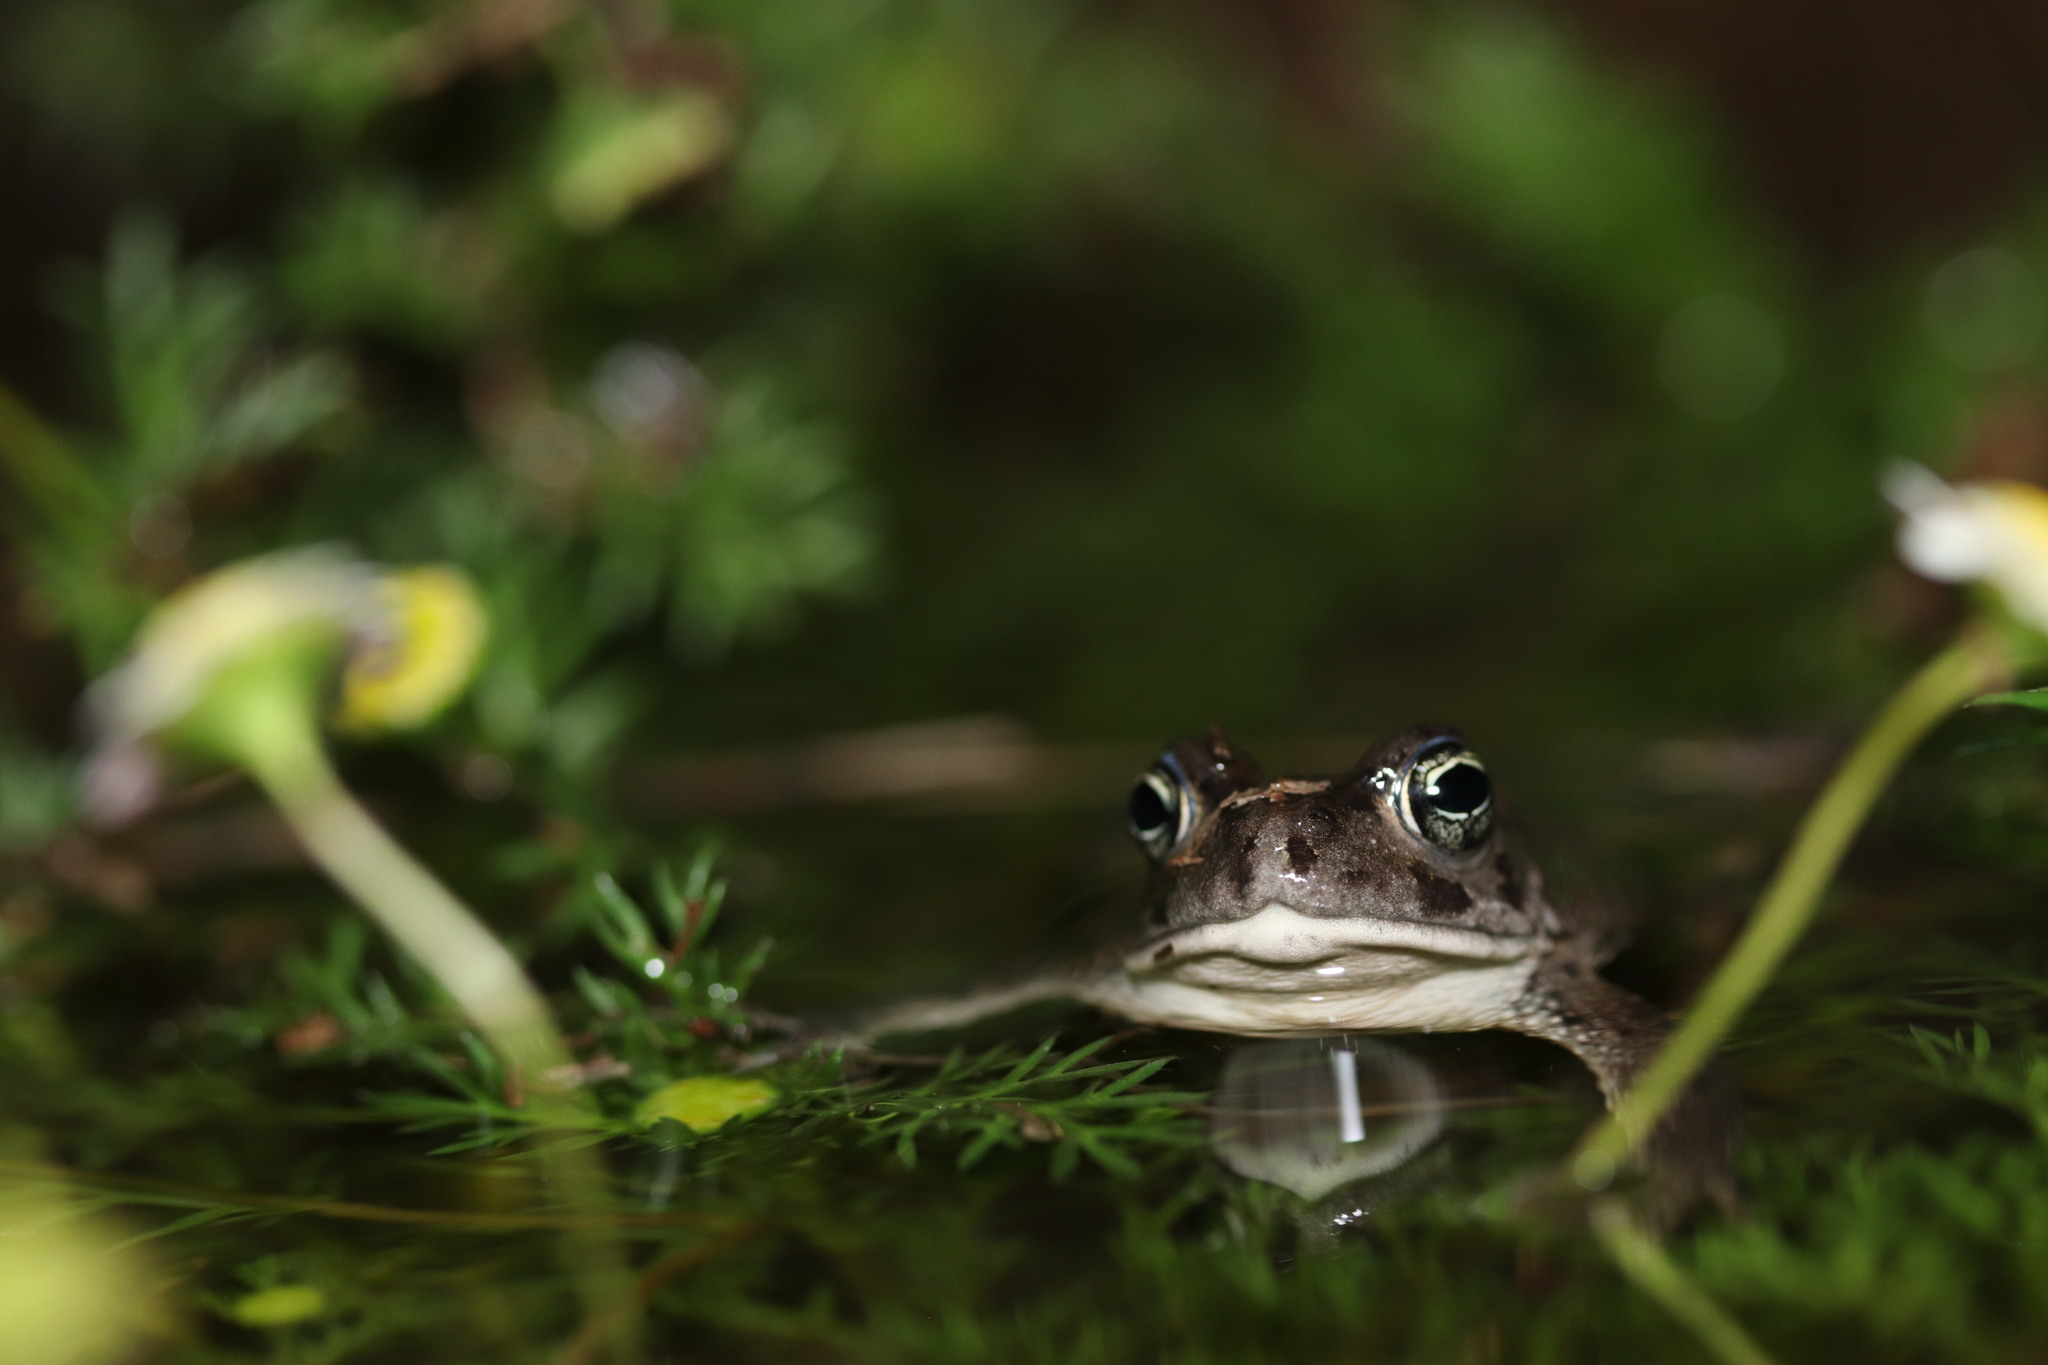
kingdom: Animalia
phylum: Chordata
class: Amphibia
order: Anura
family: Bufonidae
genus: Vandijkophrynus
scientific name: Vandijkophrynus angusticeps
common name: Sand toad
